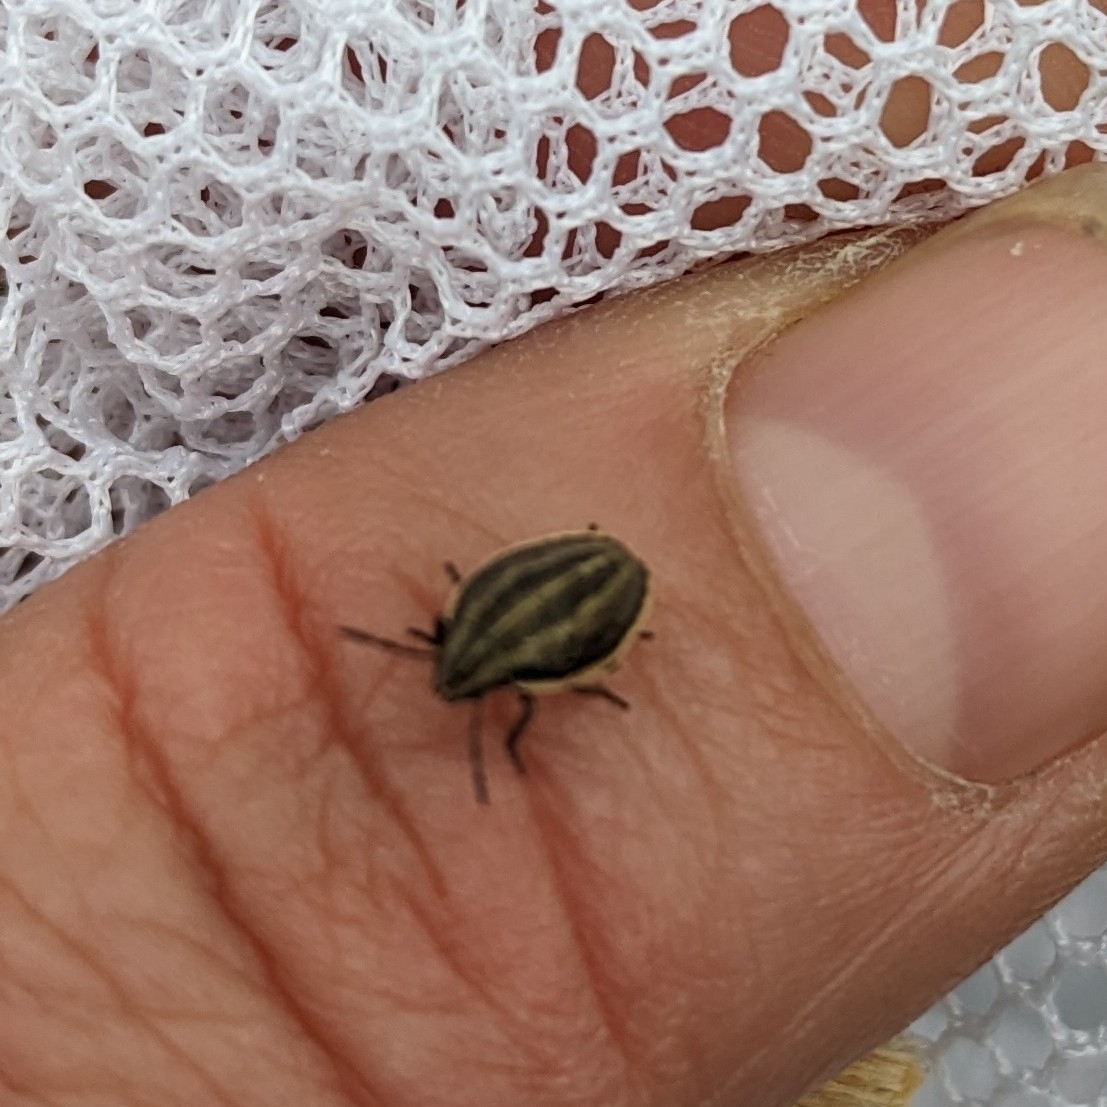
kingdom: Animalia
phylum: Arthropoda
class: Insecta
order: Hemiptera
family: Pentatomidae
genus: Aelia
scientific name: Aelia acuminata
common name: Bishop's mitre
